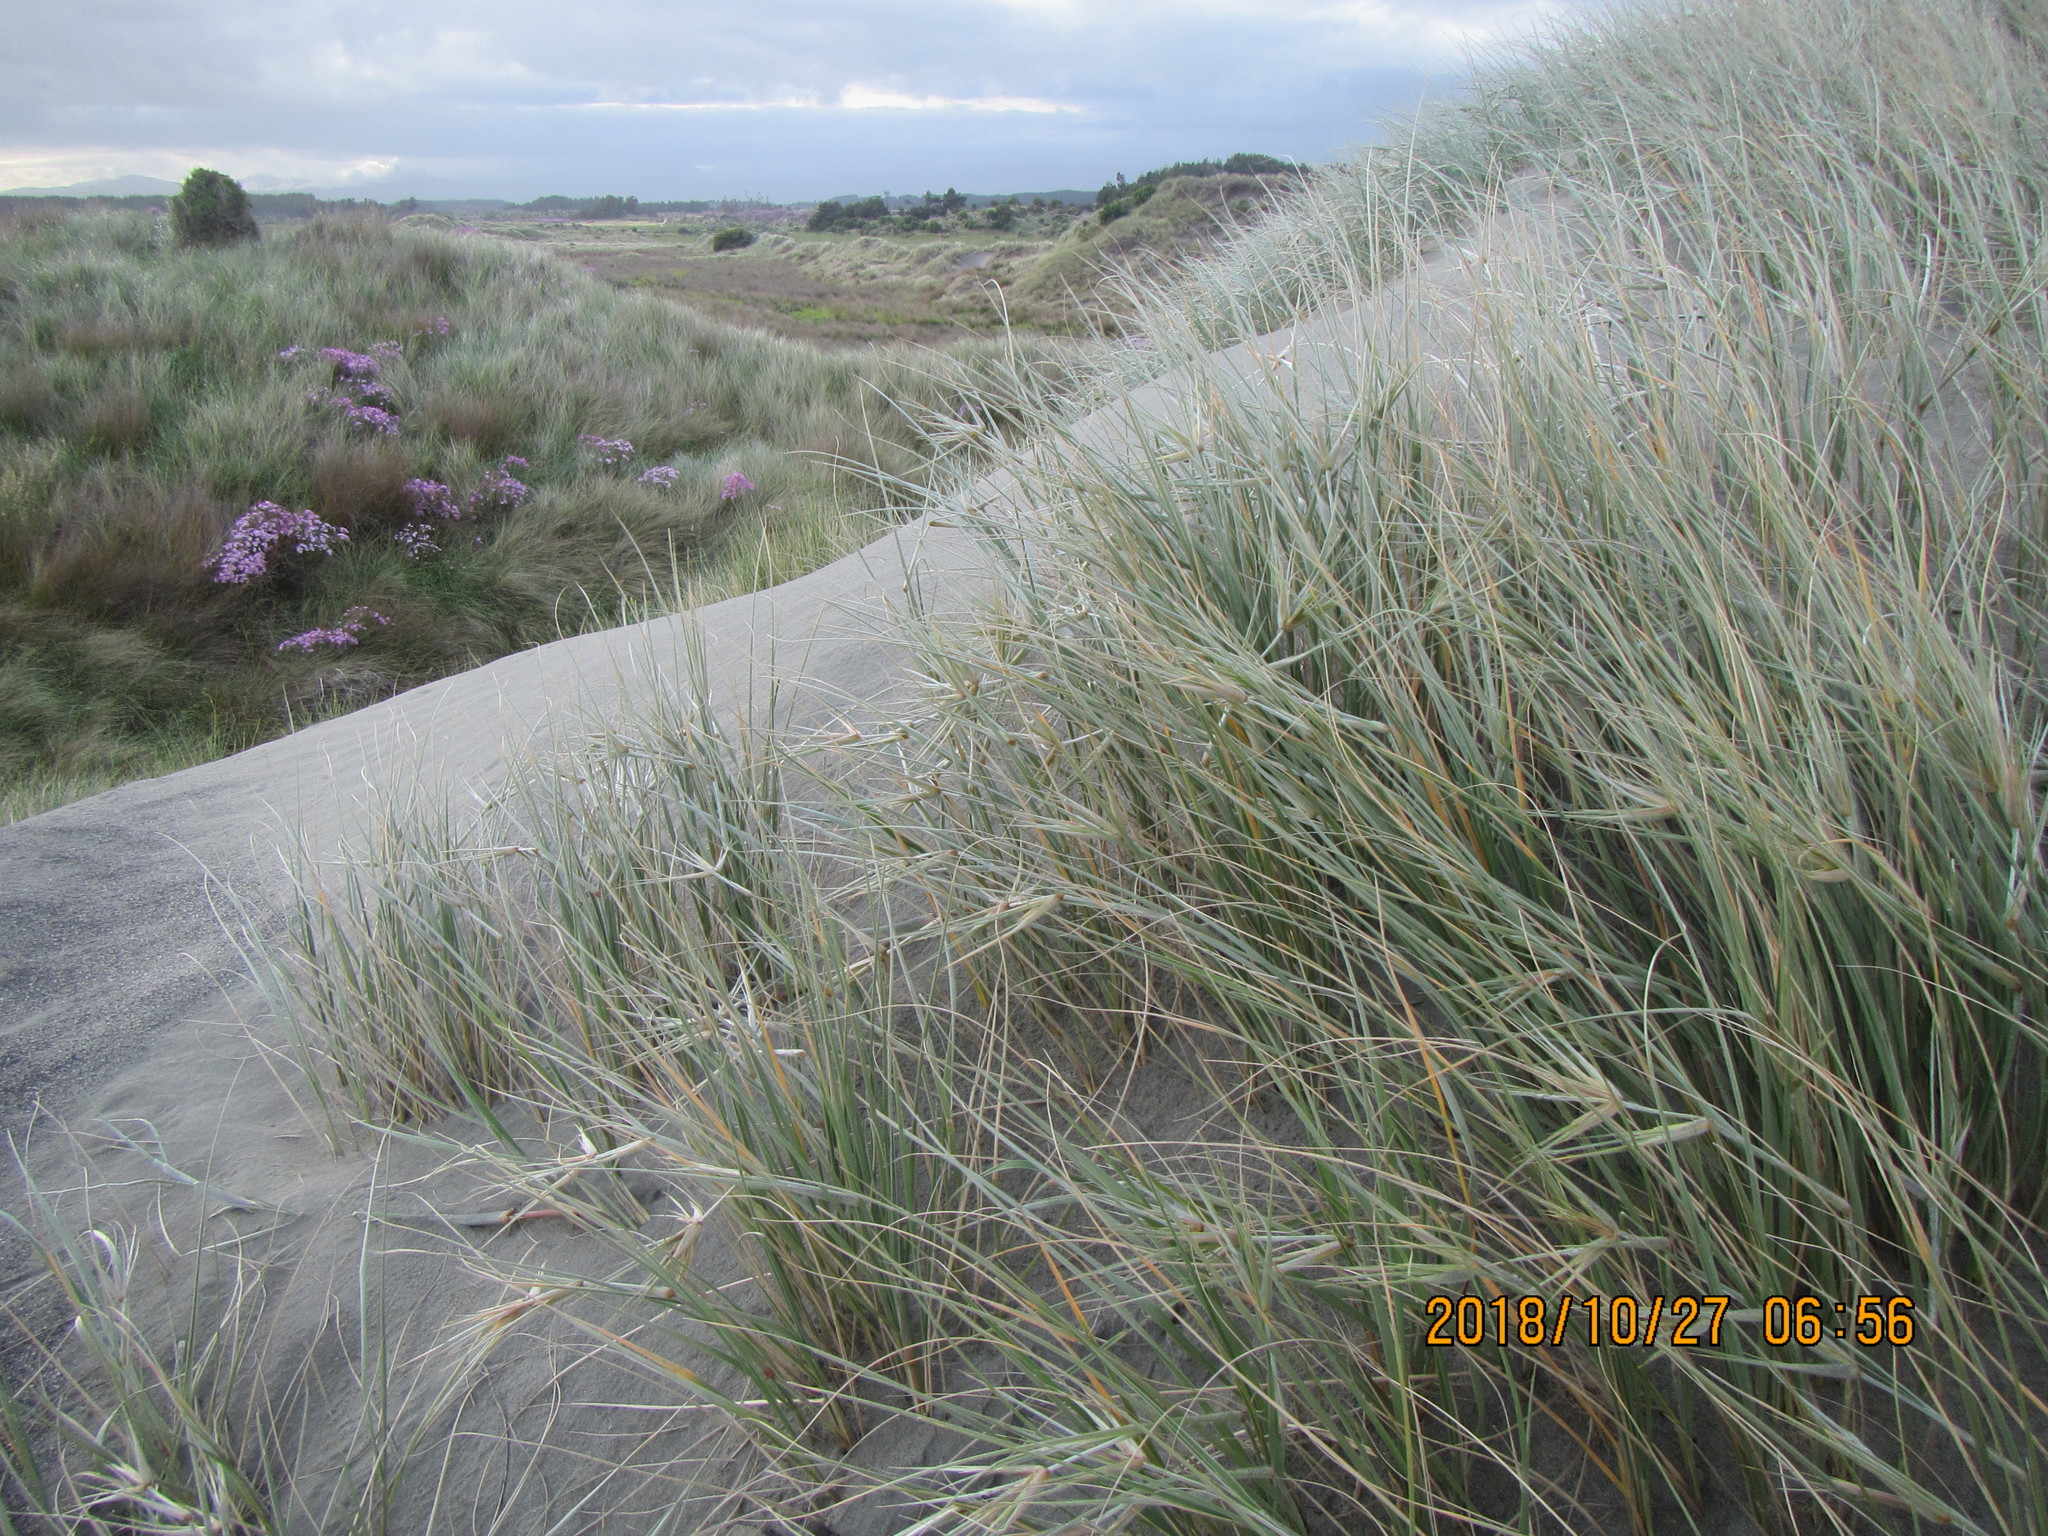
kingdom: Plantae
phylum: Tracheophyta
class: Liliopsida
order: Poales
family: Poaceae
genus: Spinifex
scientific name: Spinifex sericeus
